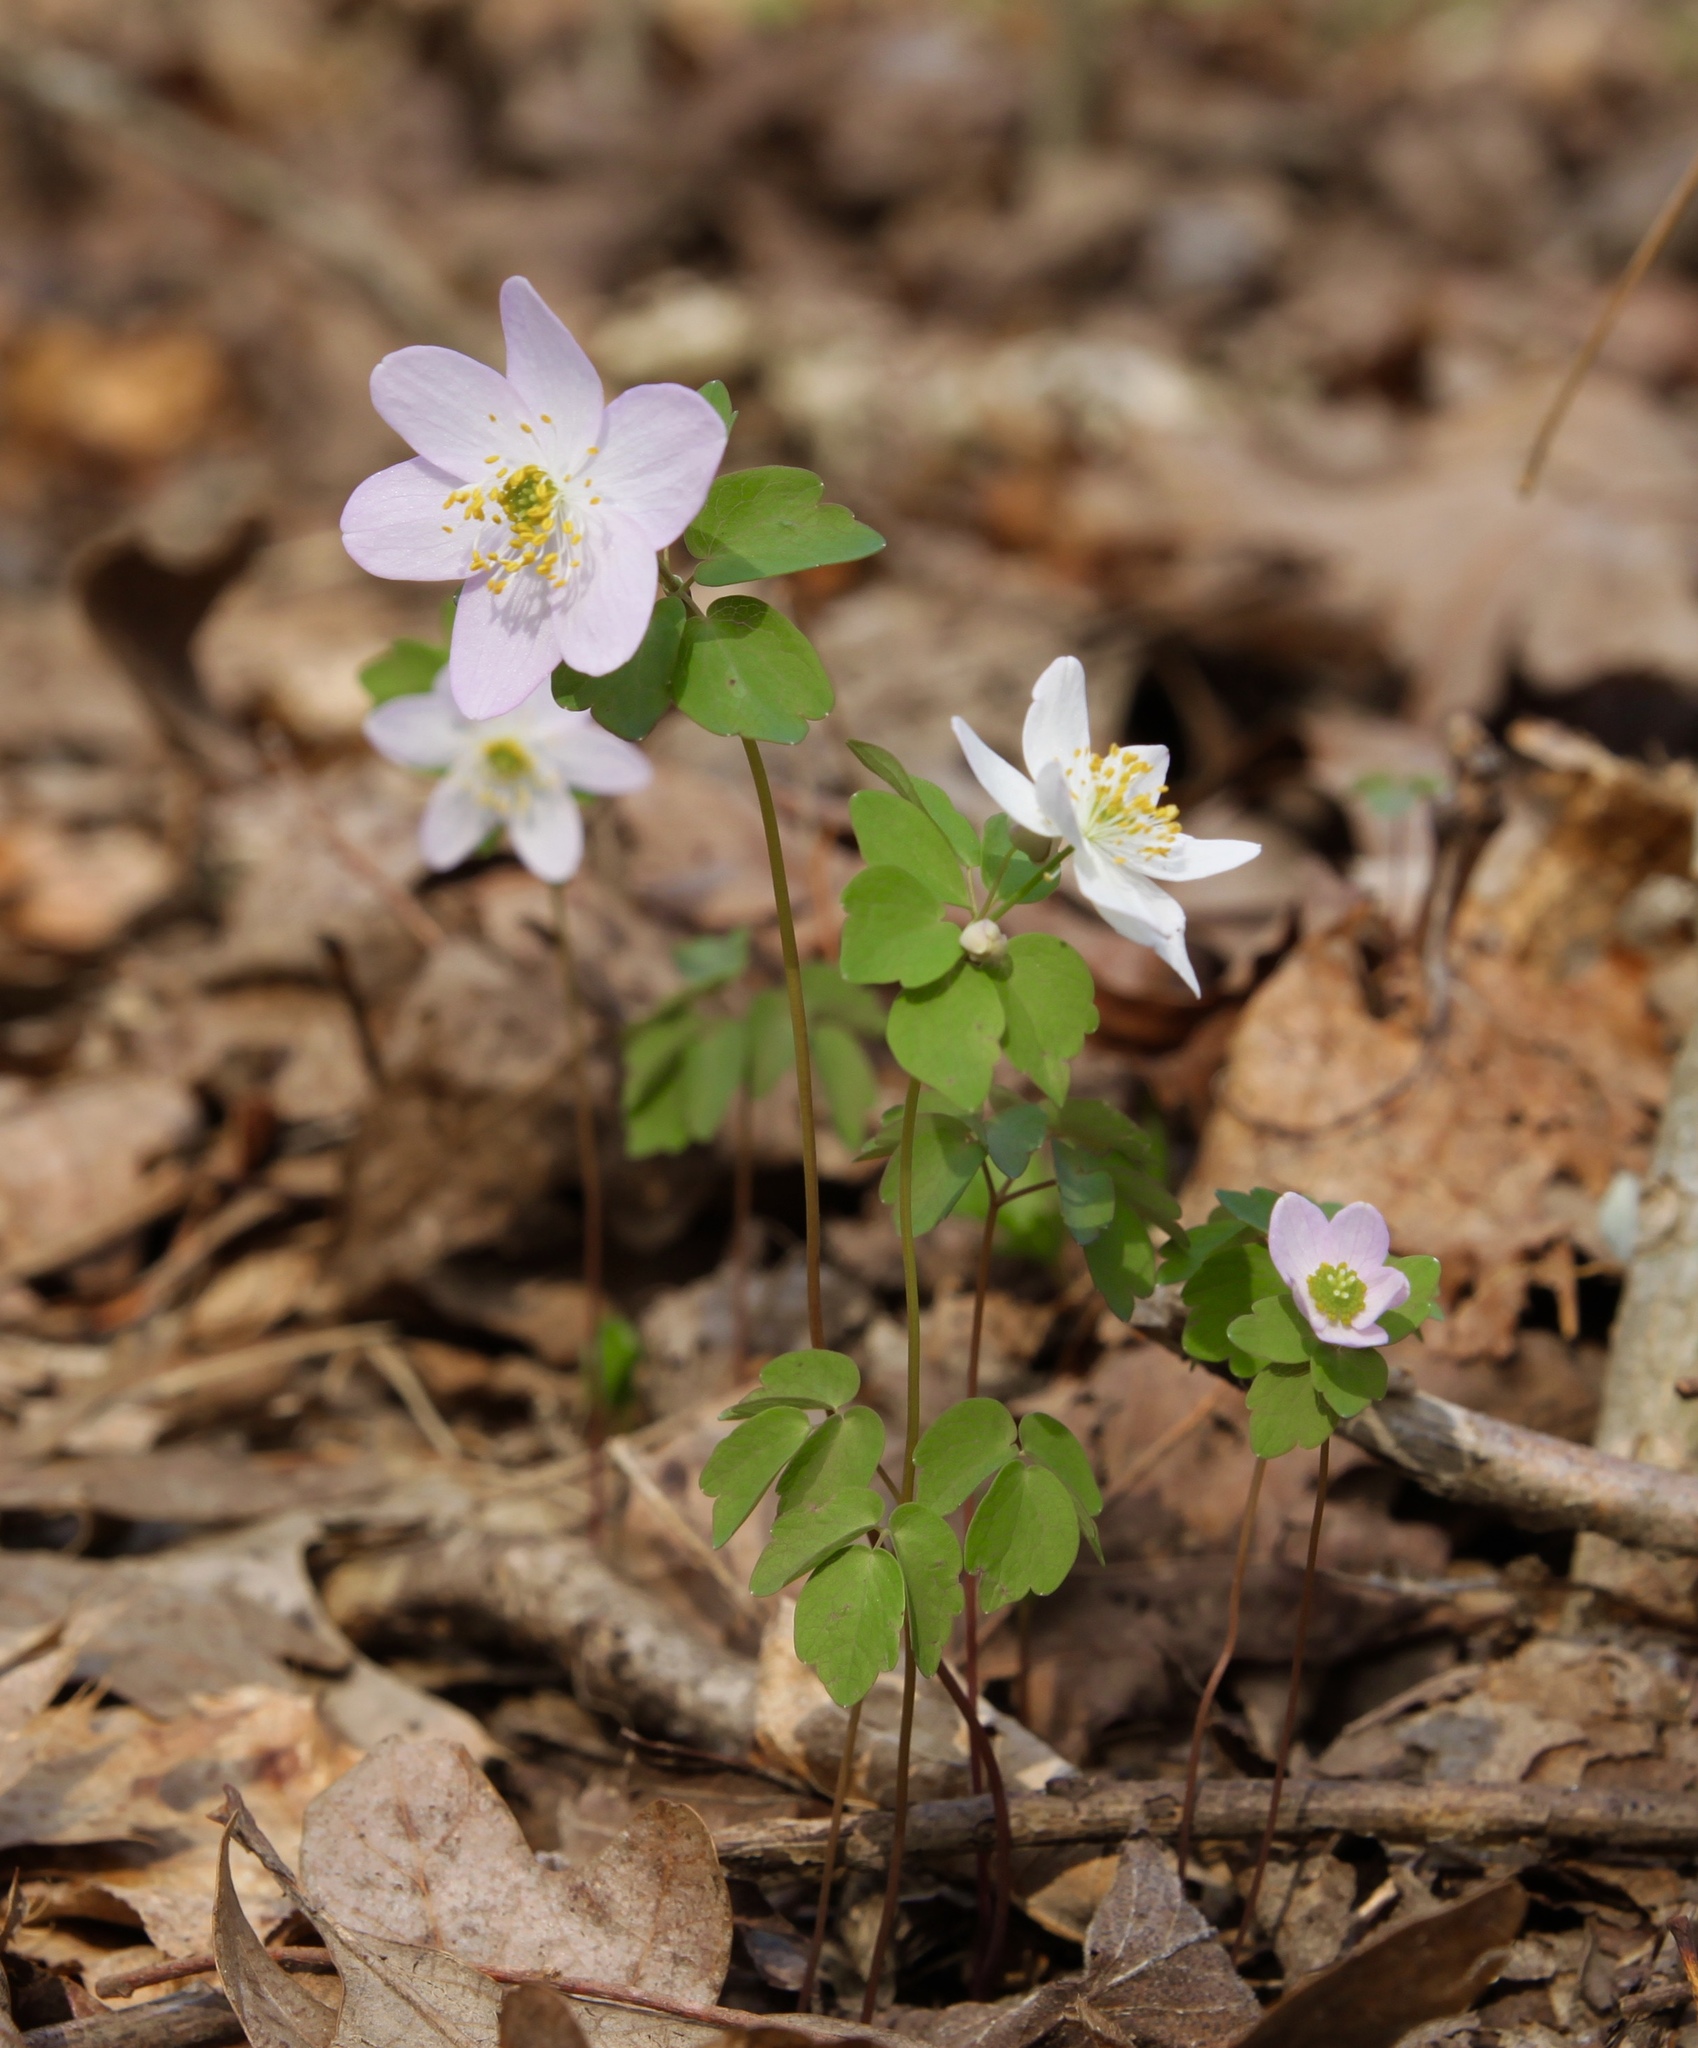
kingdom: Plantae
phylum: Tracheophyta
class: Magnoliopsida
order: Ranunculales
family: Ranunculaceae
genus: Thalictrum
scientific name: Thalictrum thalictroides
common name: Rue-anemone
